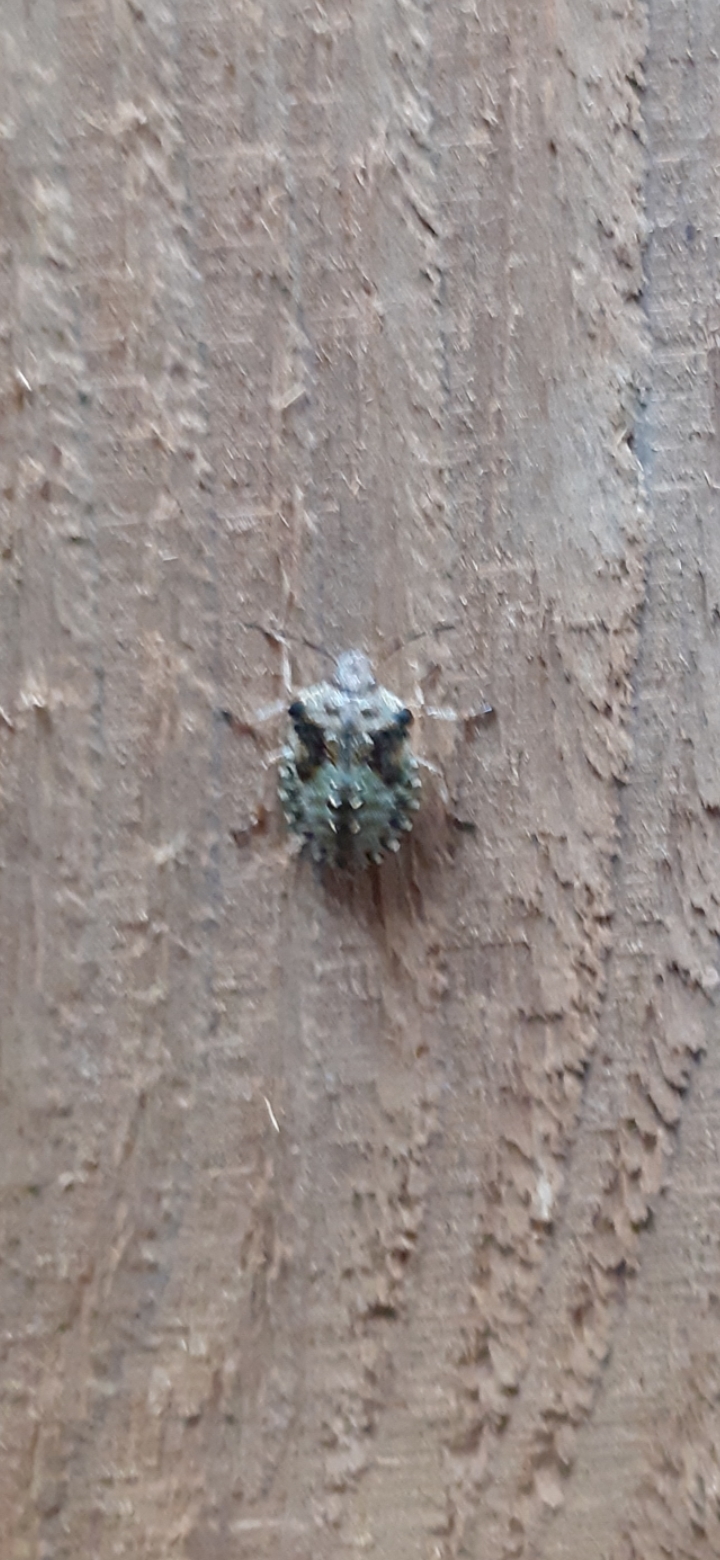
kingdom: Animalia
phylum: Arthropoda
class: Insecta
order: Hemiptera
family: Pentatomidae
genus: Pentatoma
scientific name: Pentatoma rufipes
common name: Forest bug
